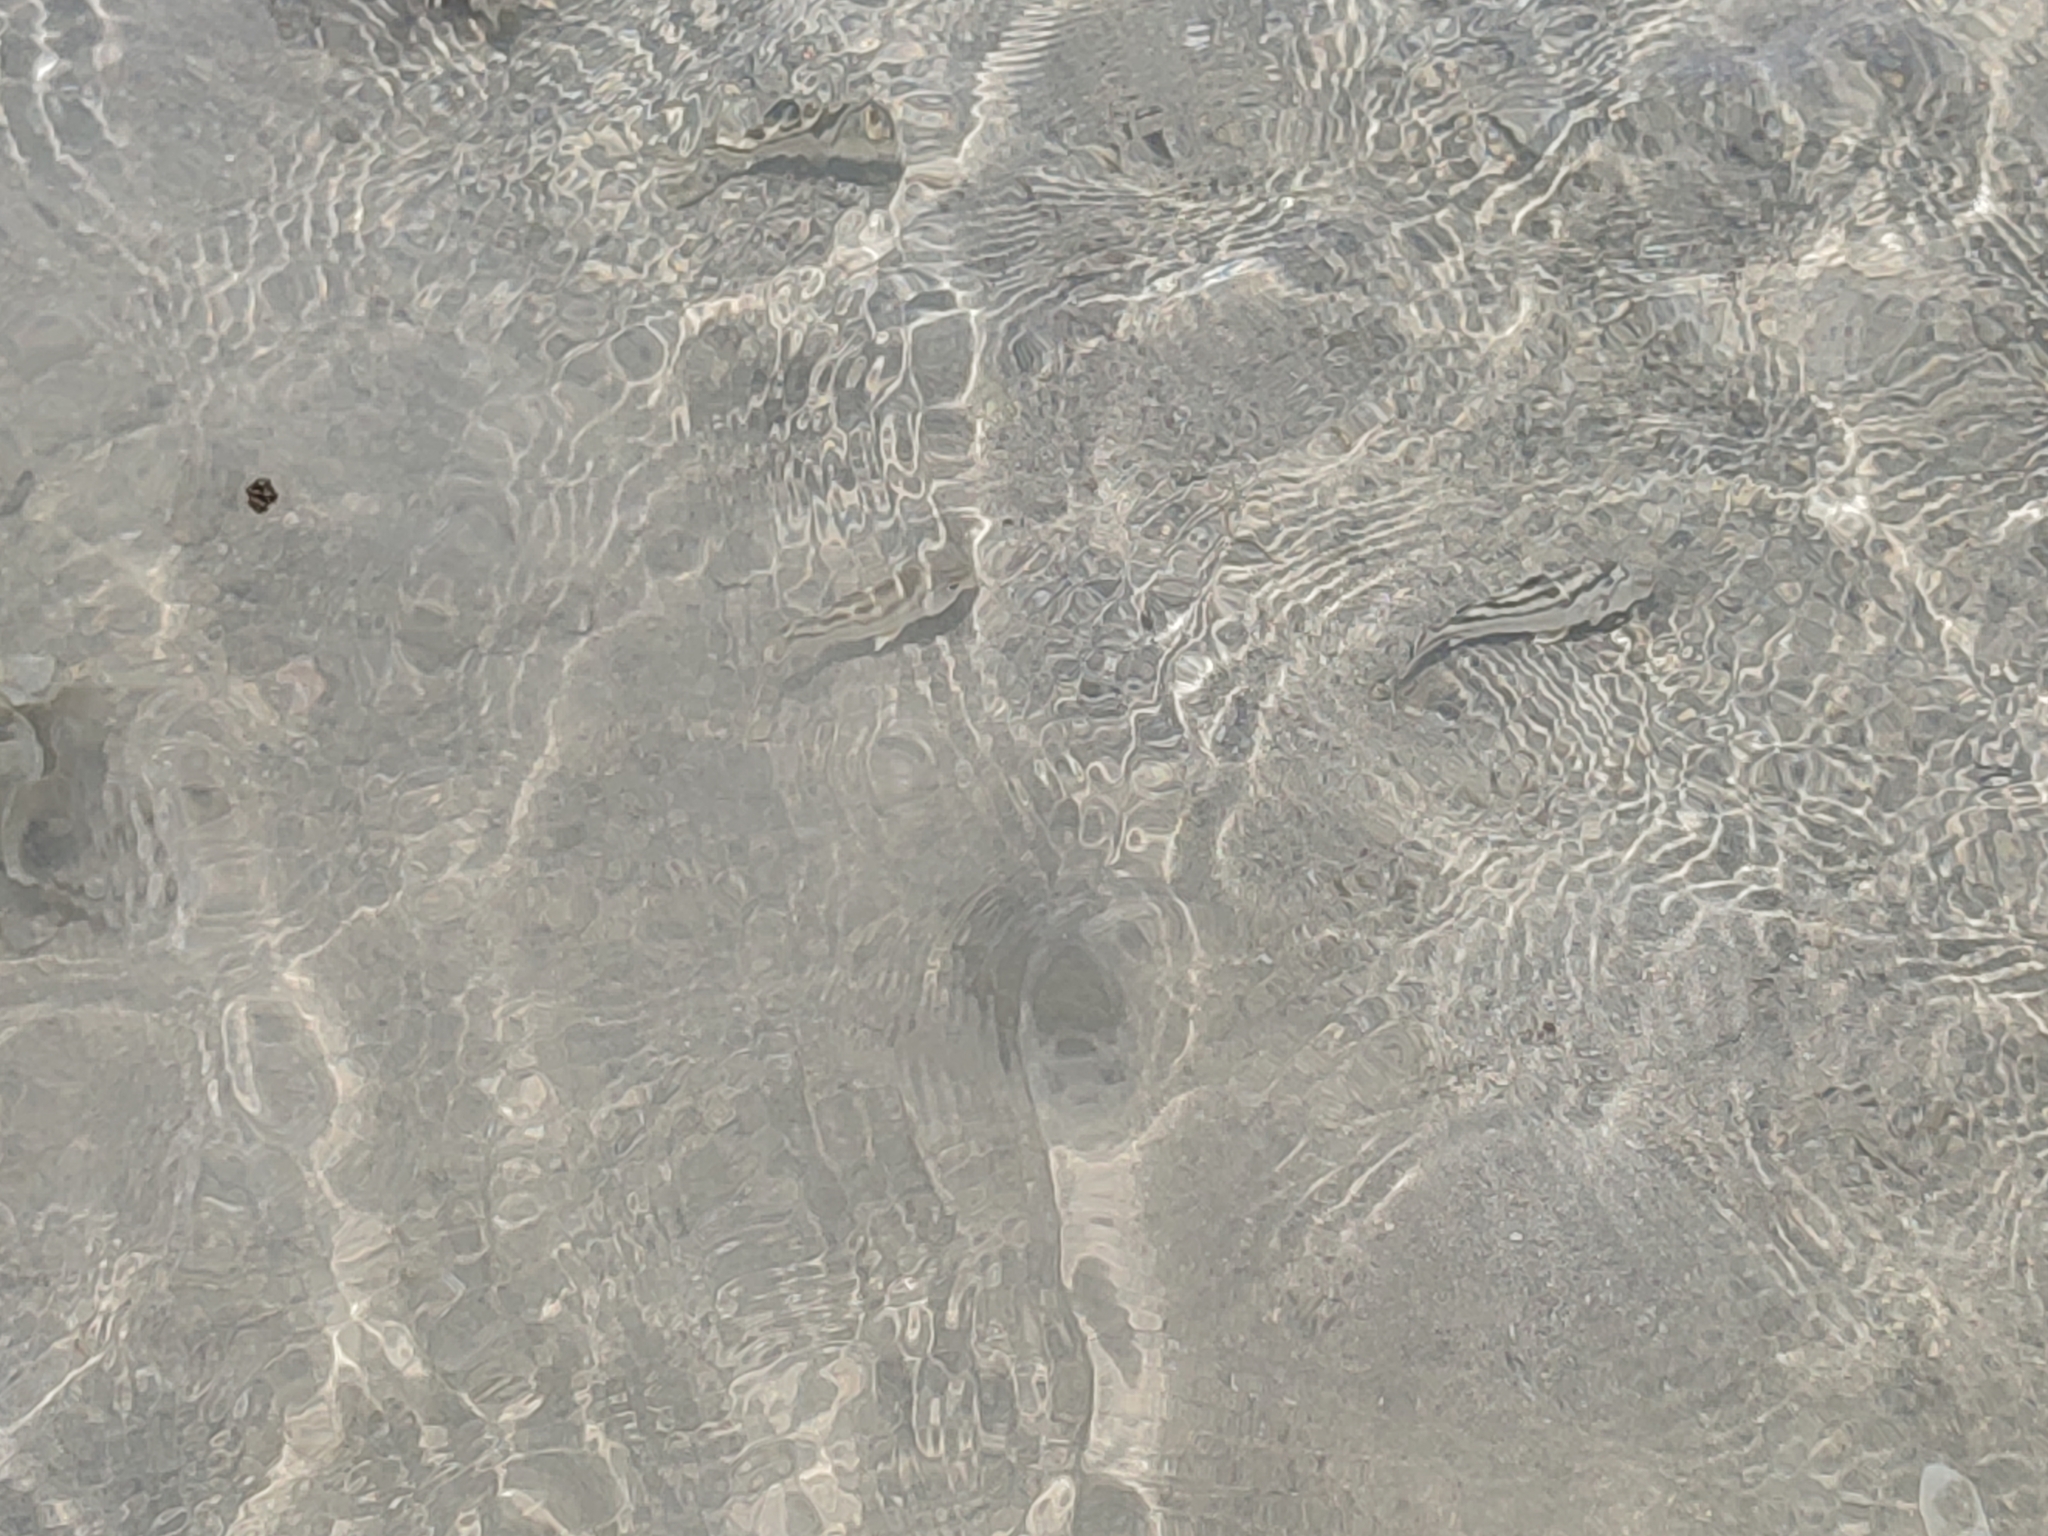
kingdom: Animalia
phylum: Chordata
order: Perciformes
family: Terapontidae
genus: Terapon
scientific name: Terapon jarbua
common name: Jarbua terapon
